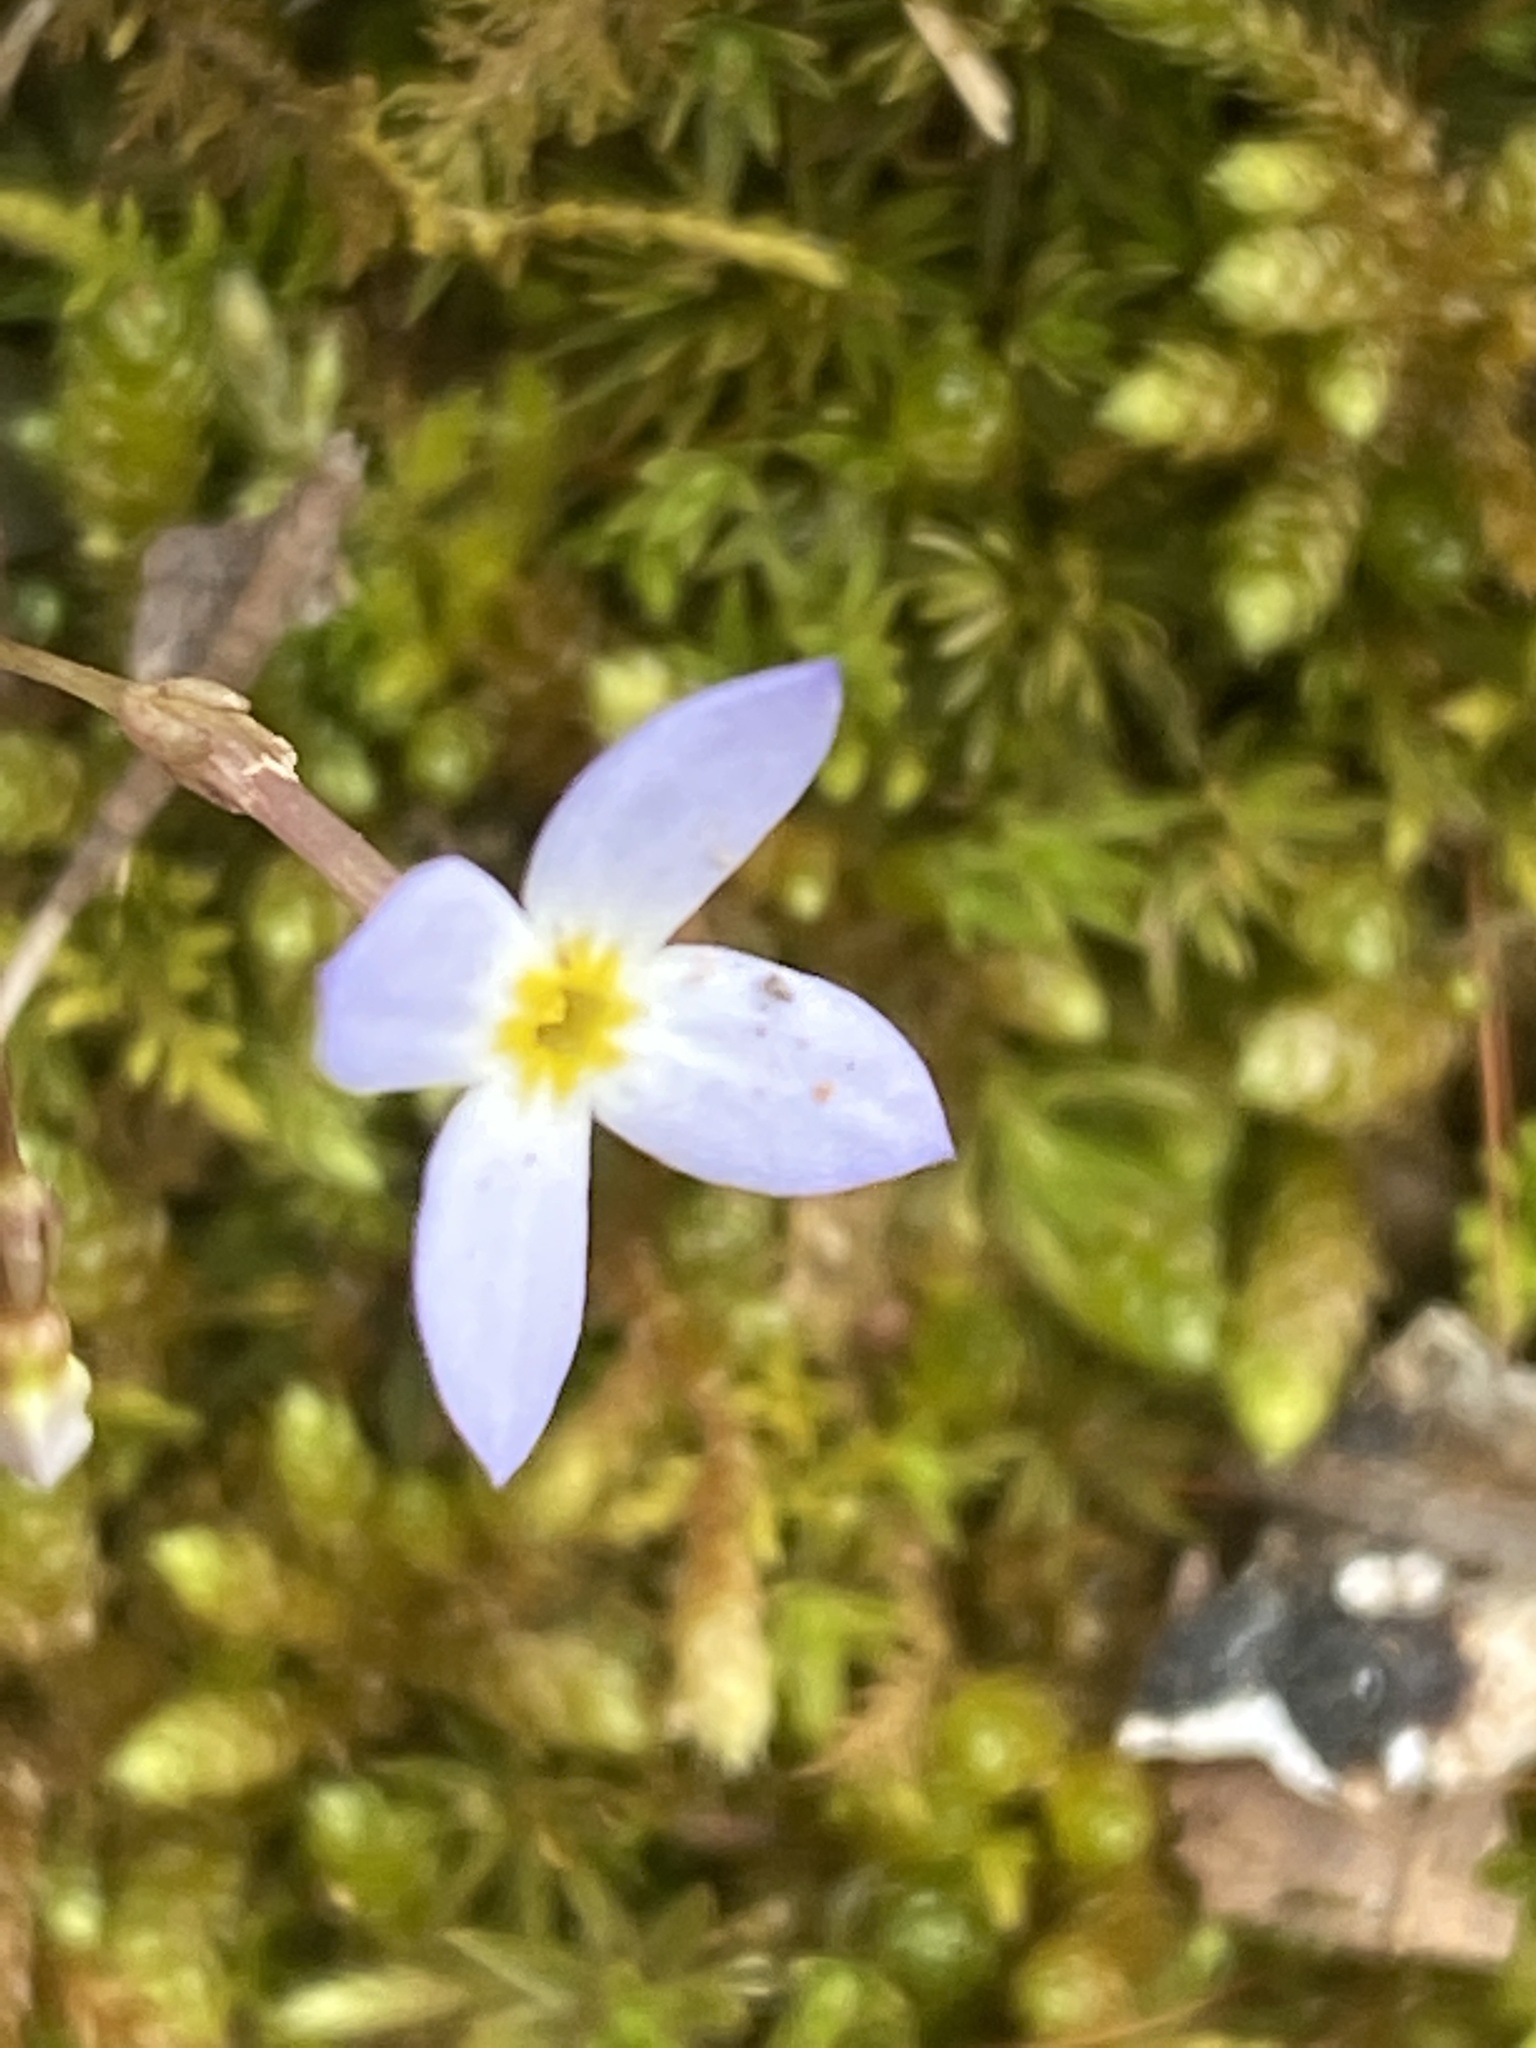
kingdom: Plantae
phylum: Tracheophyta
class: Magnoliopsida
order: Gentianales
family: Rubiaceae
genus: Houstonia
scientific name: Houstonia caerulea
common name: Bluets
